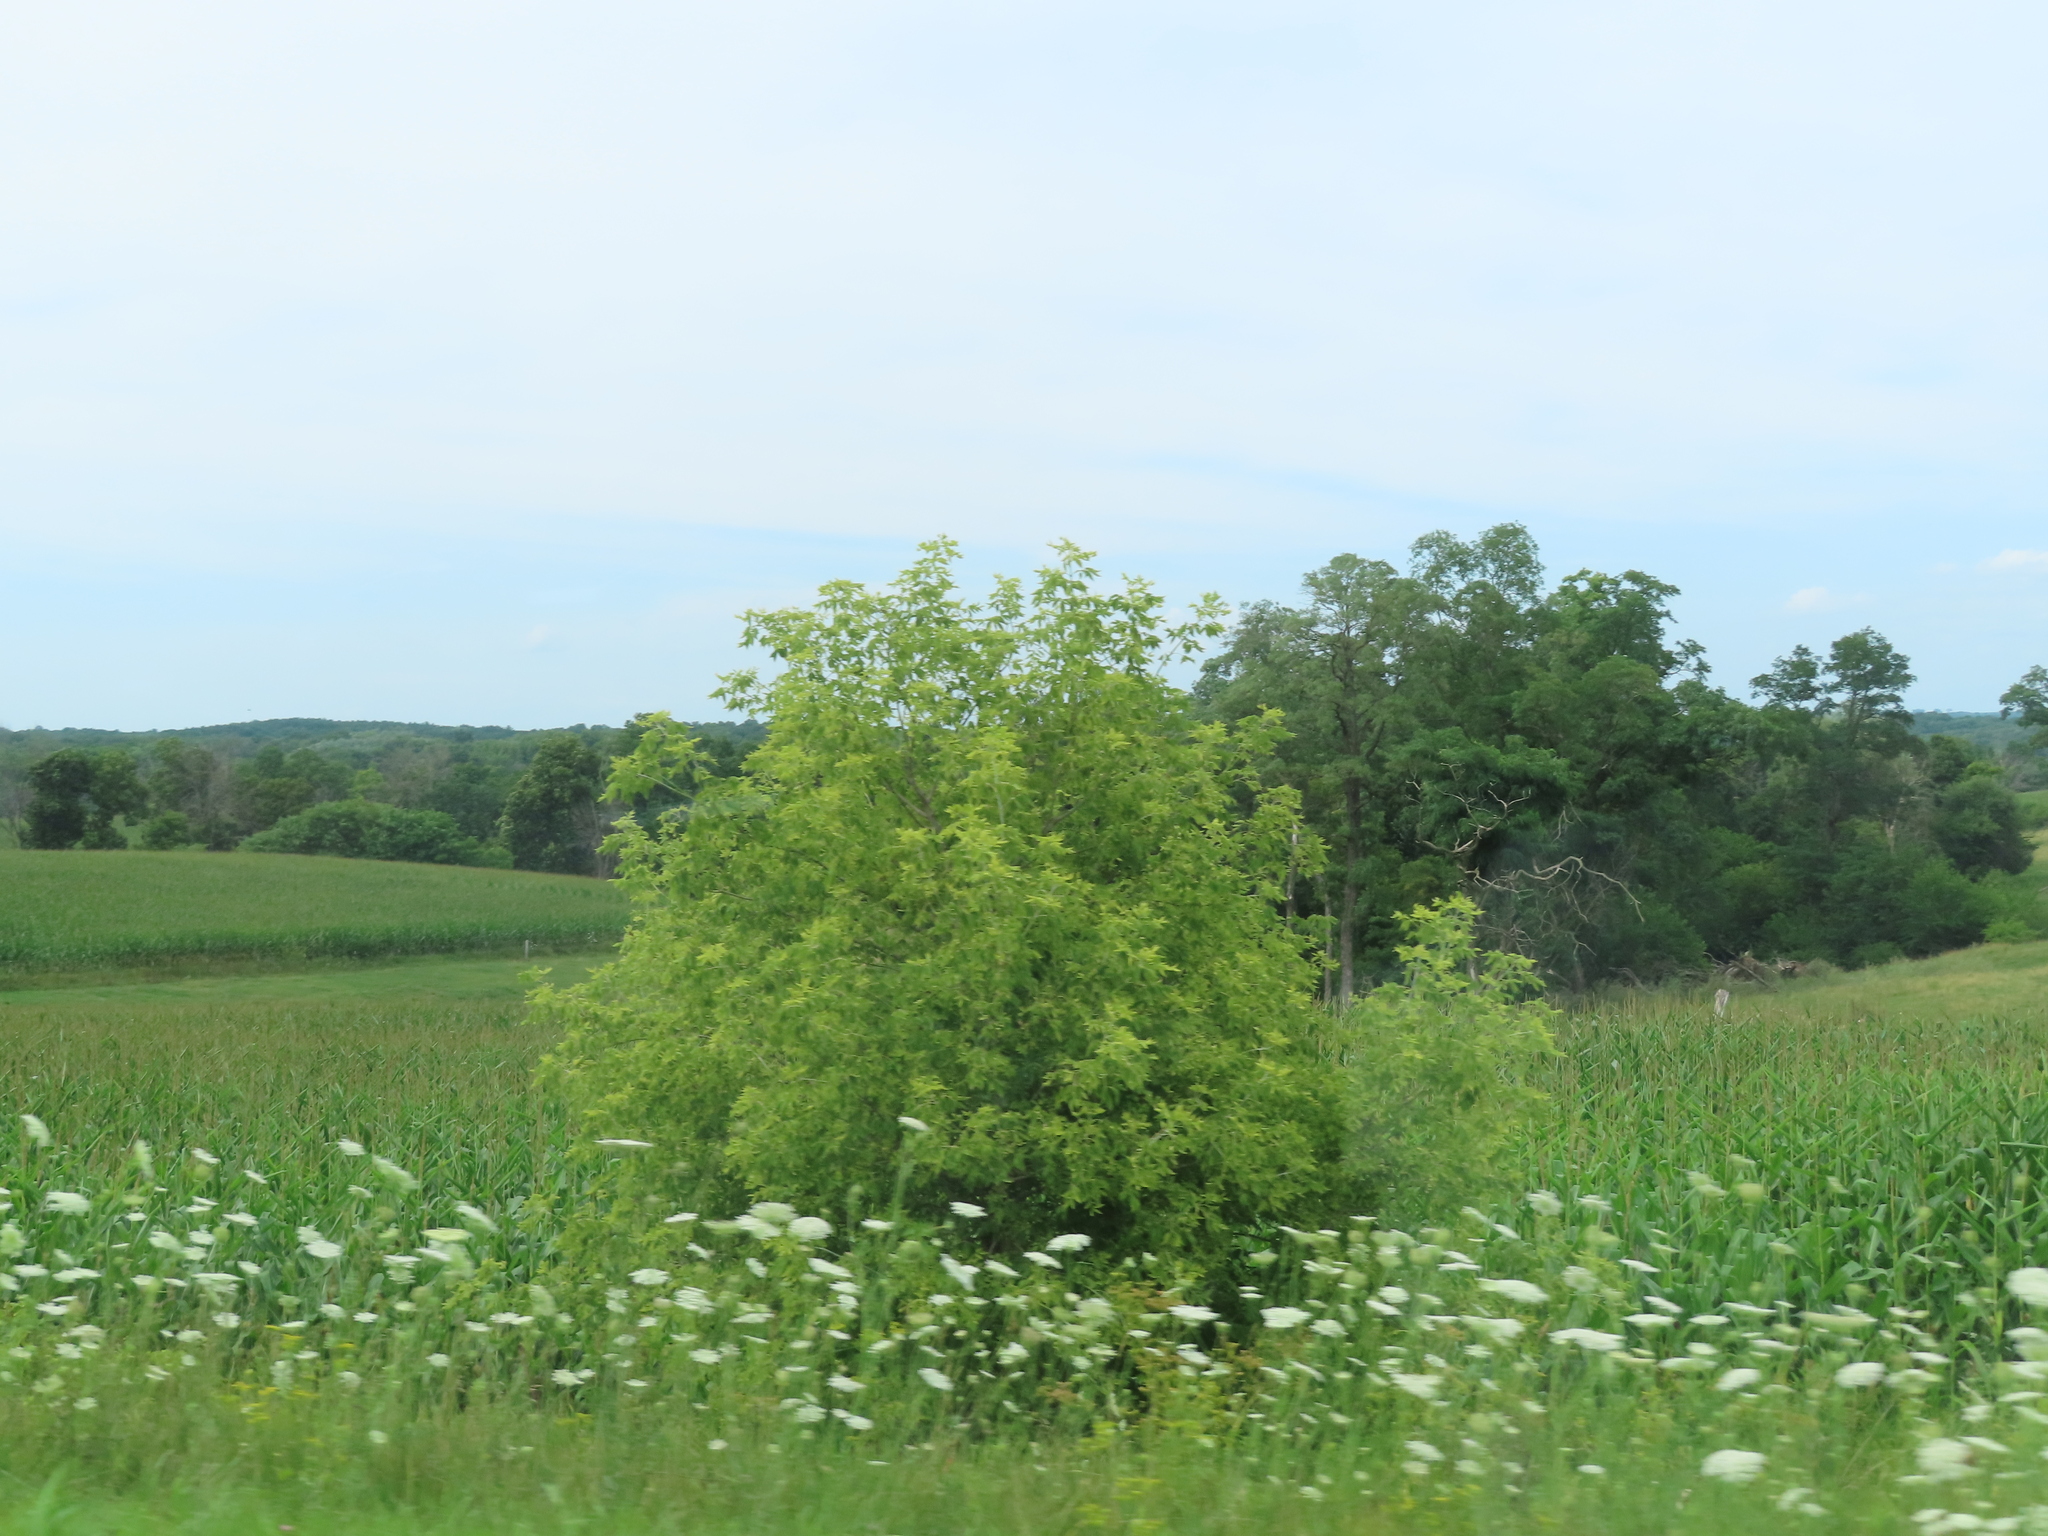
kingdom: Plantae
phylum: Tracheophyta
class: Magnoliopsida
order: Apiales
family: Apiaceae
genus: Daucus
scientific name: Daucus carota
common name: Wild carrot
